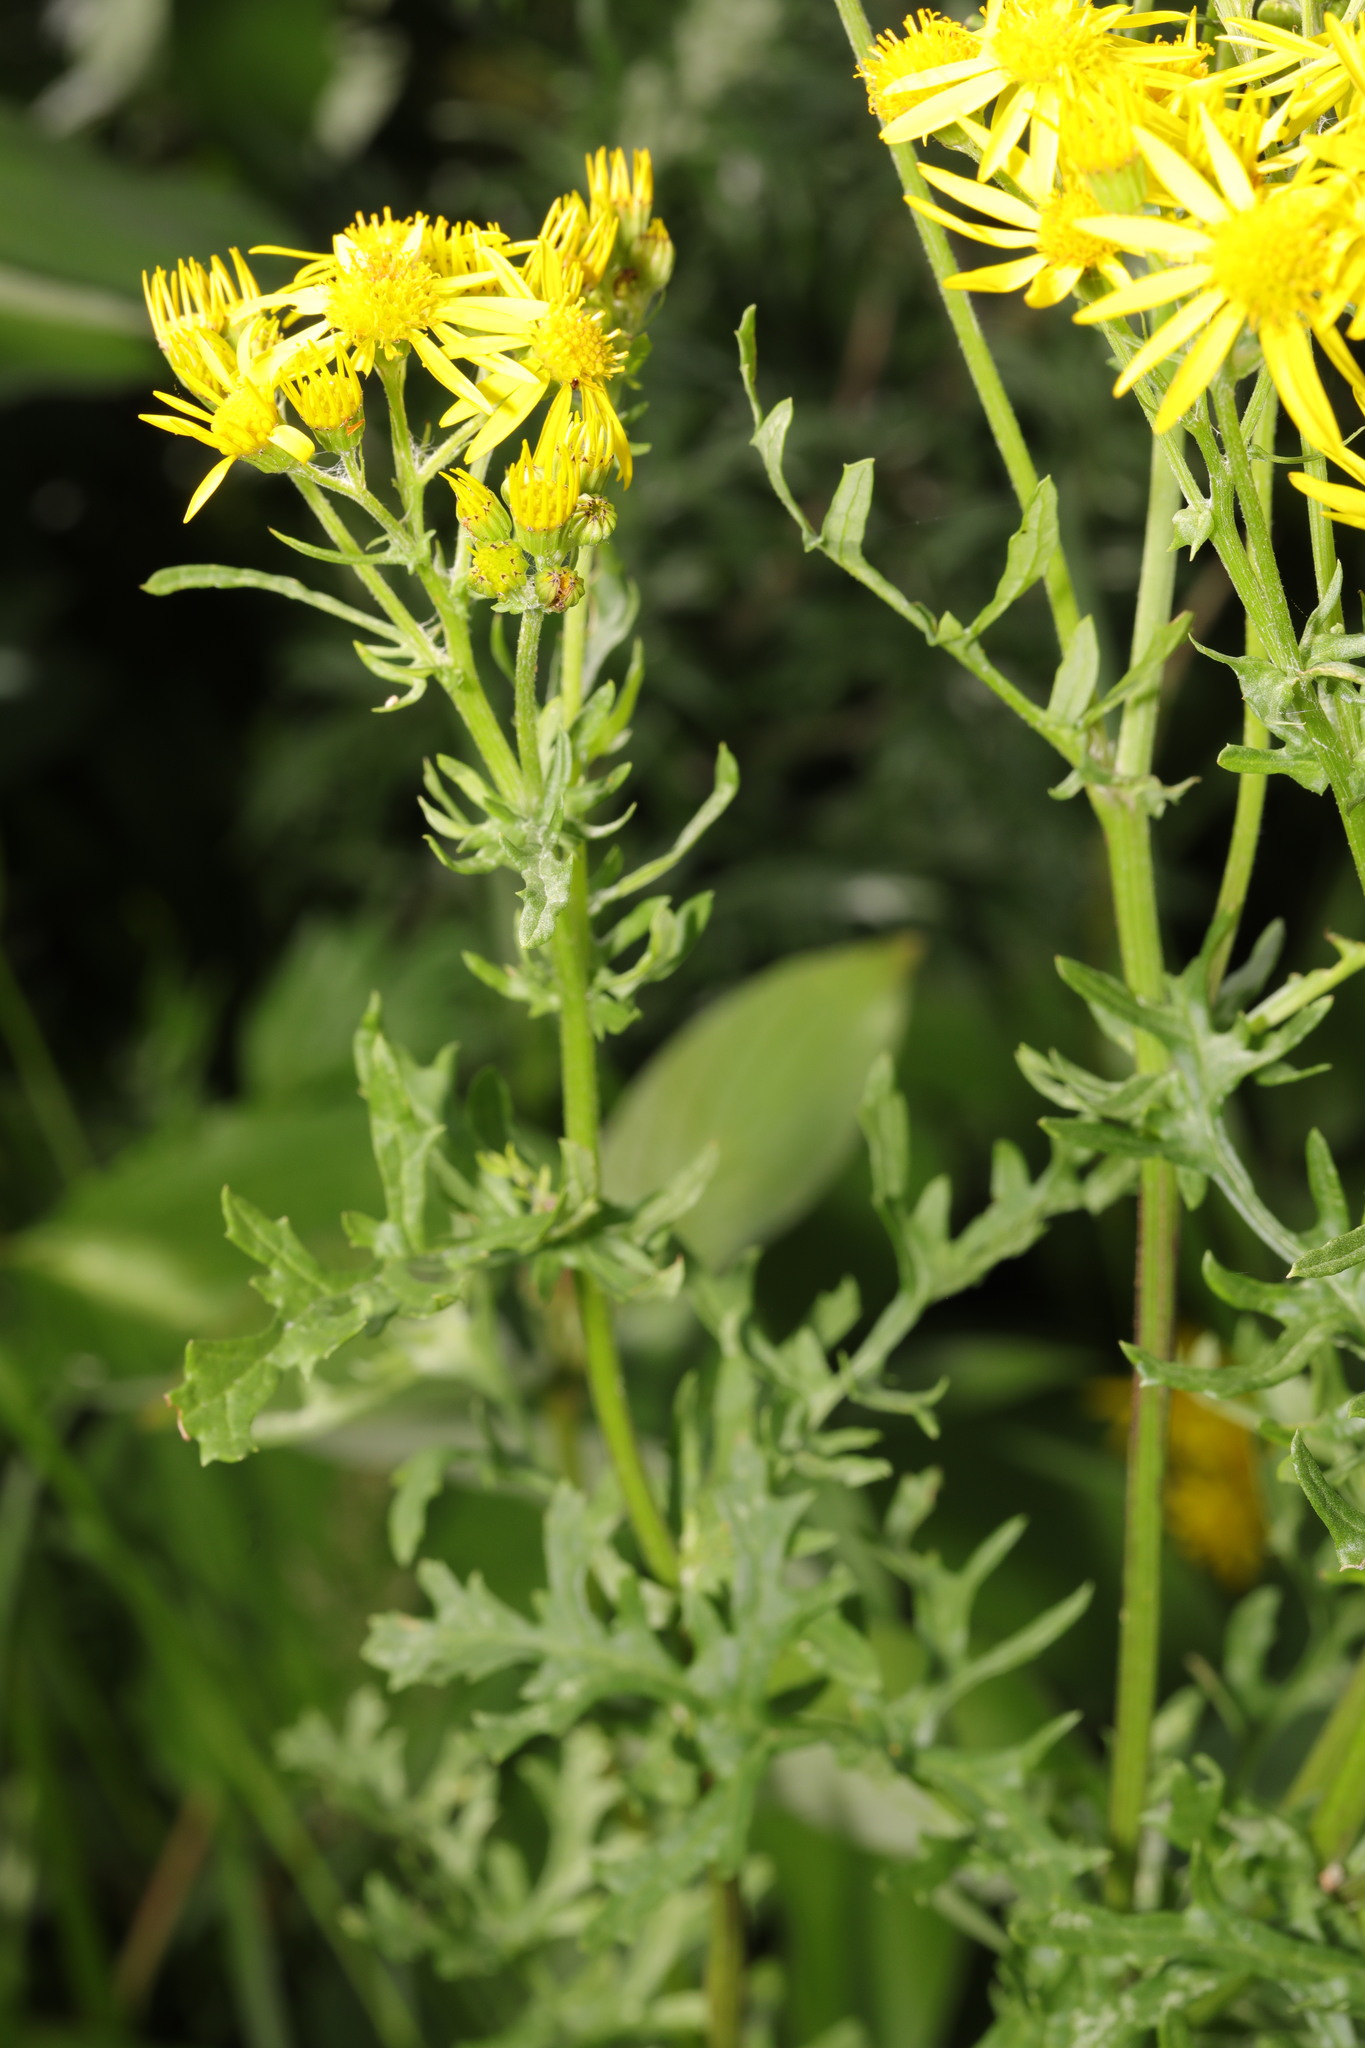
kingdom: Plantae
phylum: Tracheophyta
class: Magnoliopsida
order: Asterales
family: Asteraceae
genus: Jacobaea
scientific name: Jacobaea vulgaris
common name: Stinking willie
